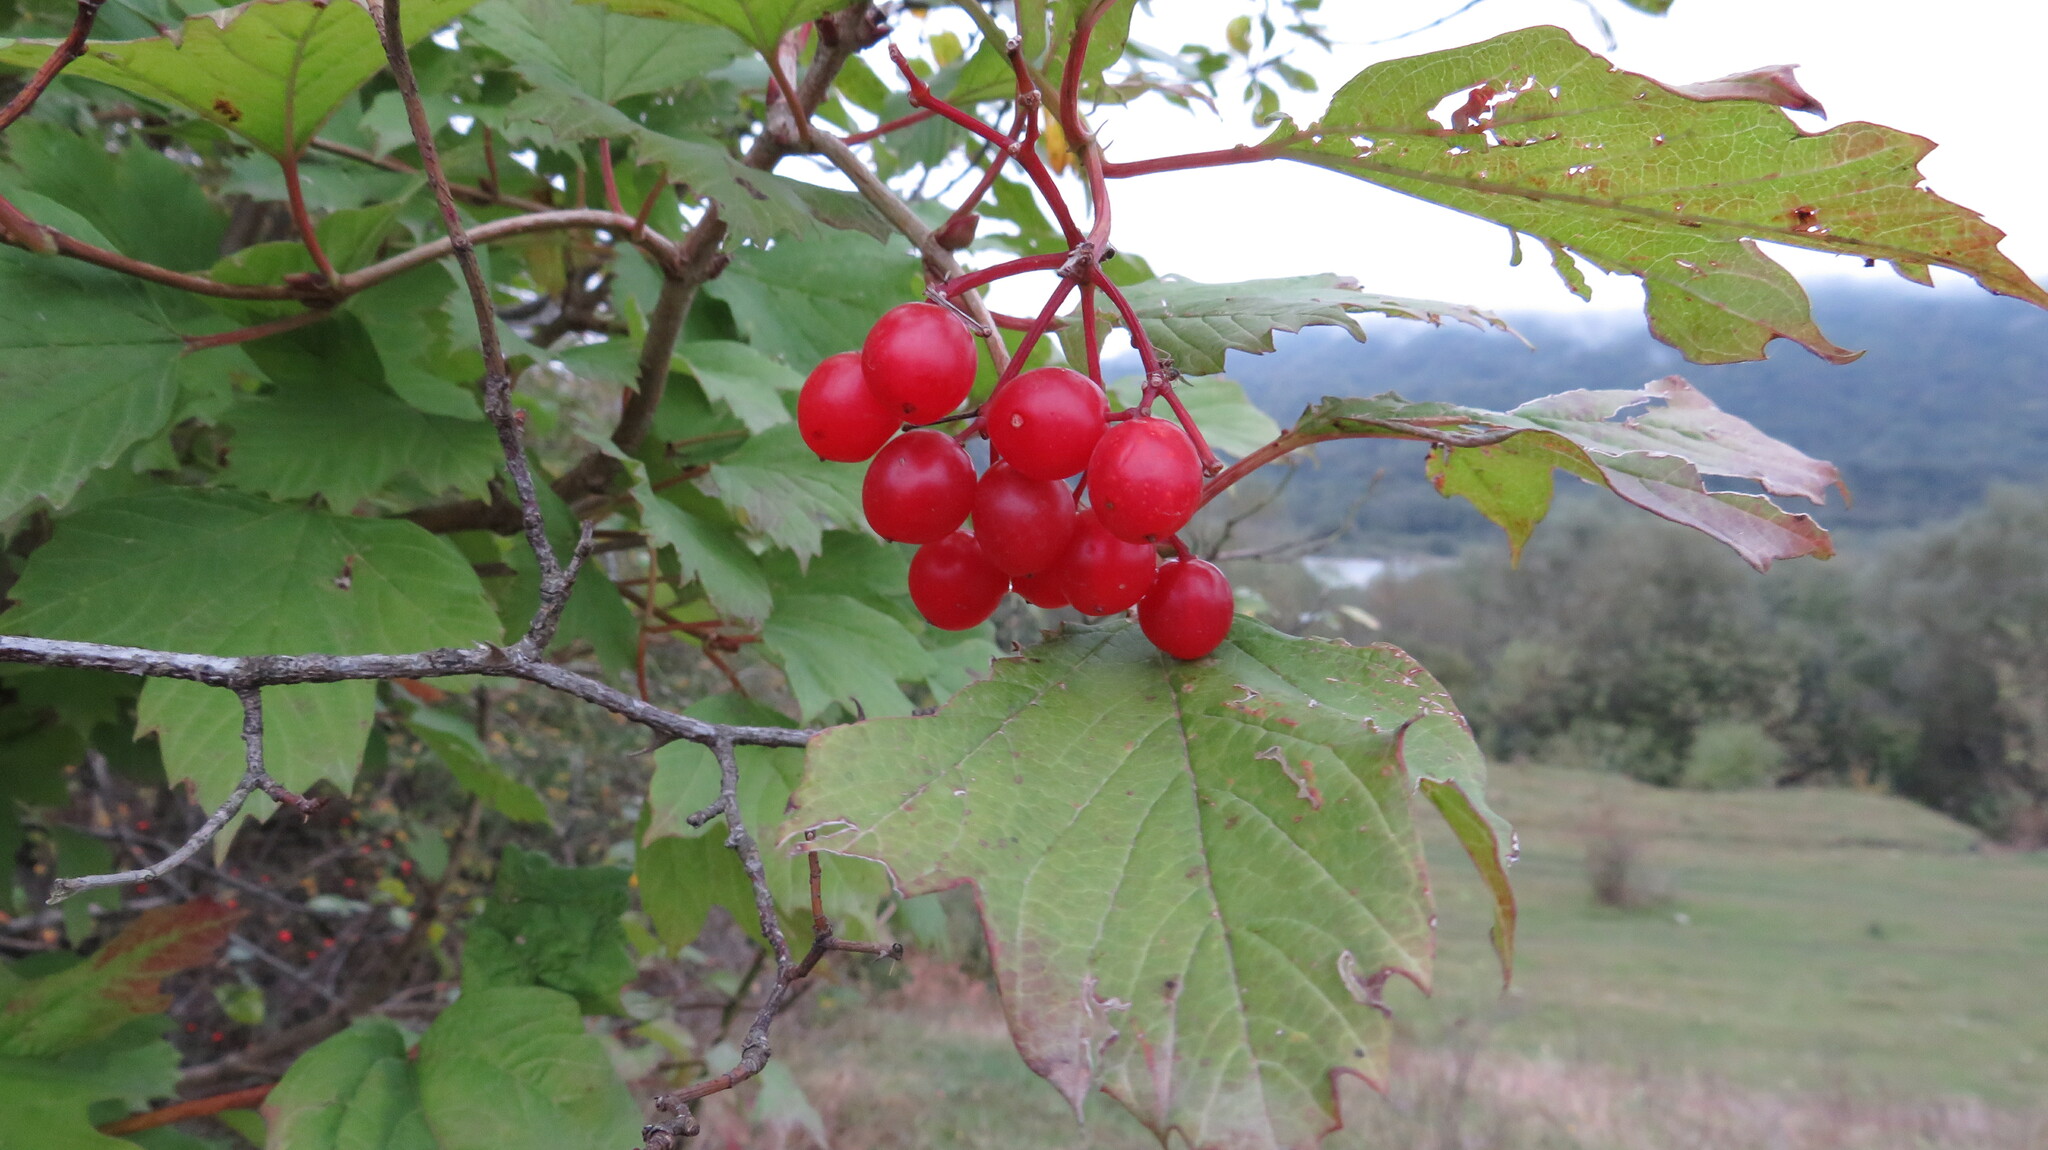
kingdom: Plantae
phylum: Tracheophyta
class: Magnoliopsida
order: Dipsacales
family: Viburnaceae
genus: Viburnum
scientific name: Viburnum opulus
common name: Guelder-rose
